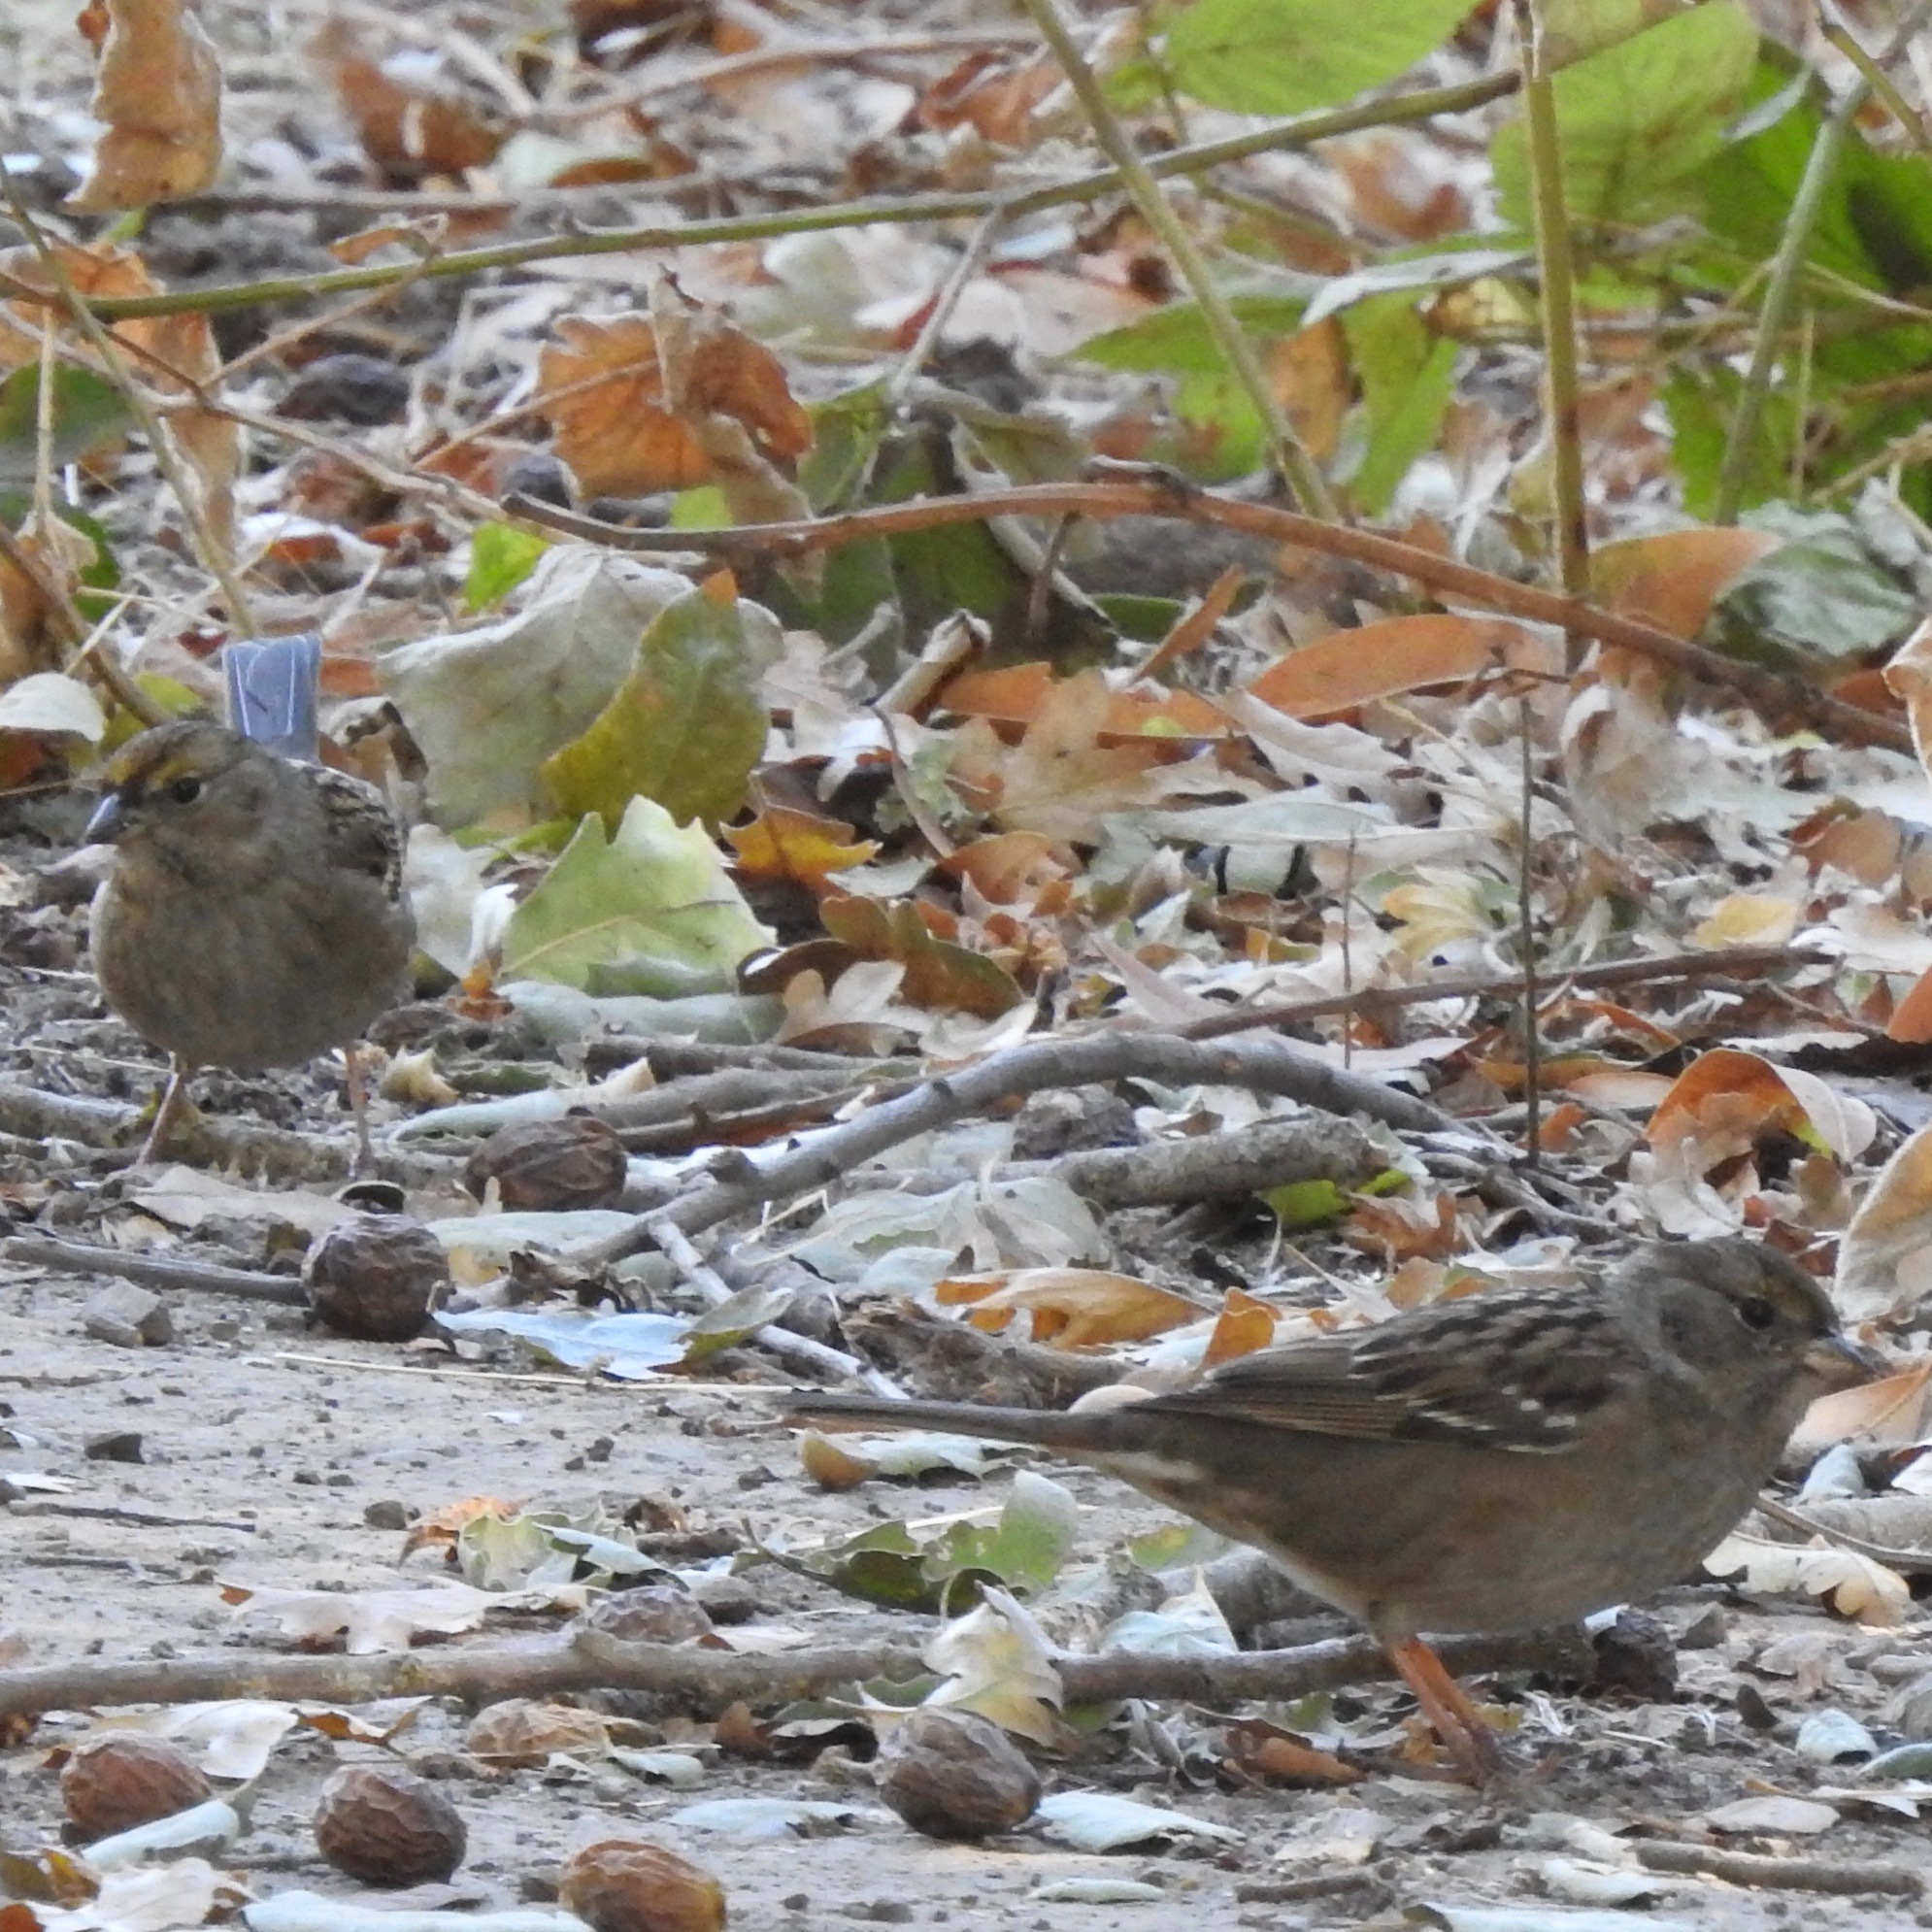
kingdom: Animalia
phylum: Chordata
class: Aves
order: Passeriformes
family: Passerellidae
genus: Zonotrichia
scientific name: Zonotrichia atricapilla
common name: Golden-crowned sparrow
